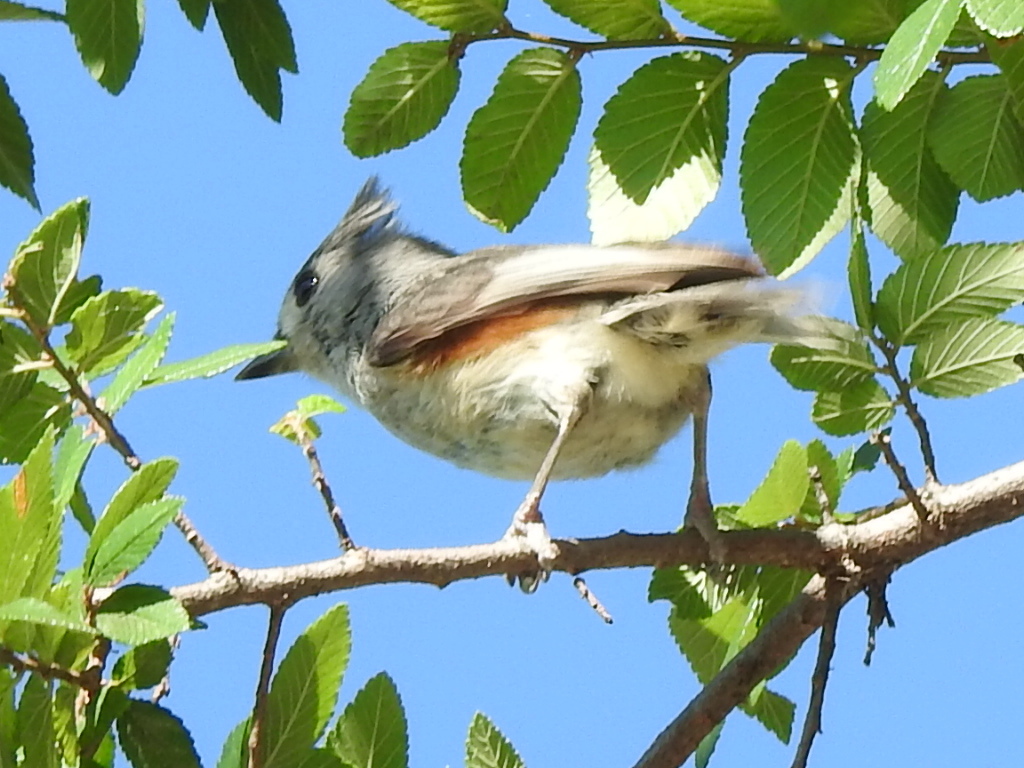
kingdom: Animalia
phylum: Chordata
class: Aves
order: Passeriformes
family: Paridae
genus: Baeolophus
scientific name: Baeolophus bicolor
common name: Tufted titmouse
